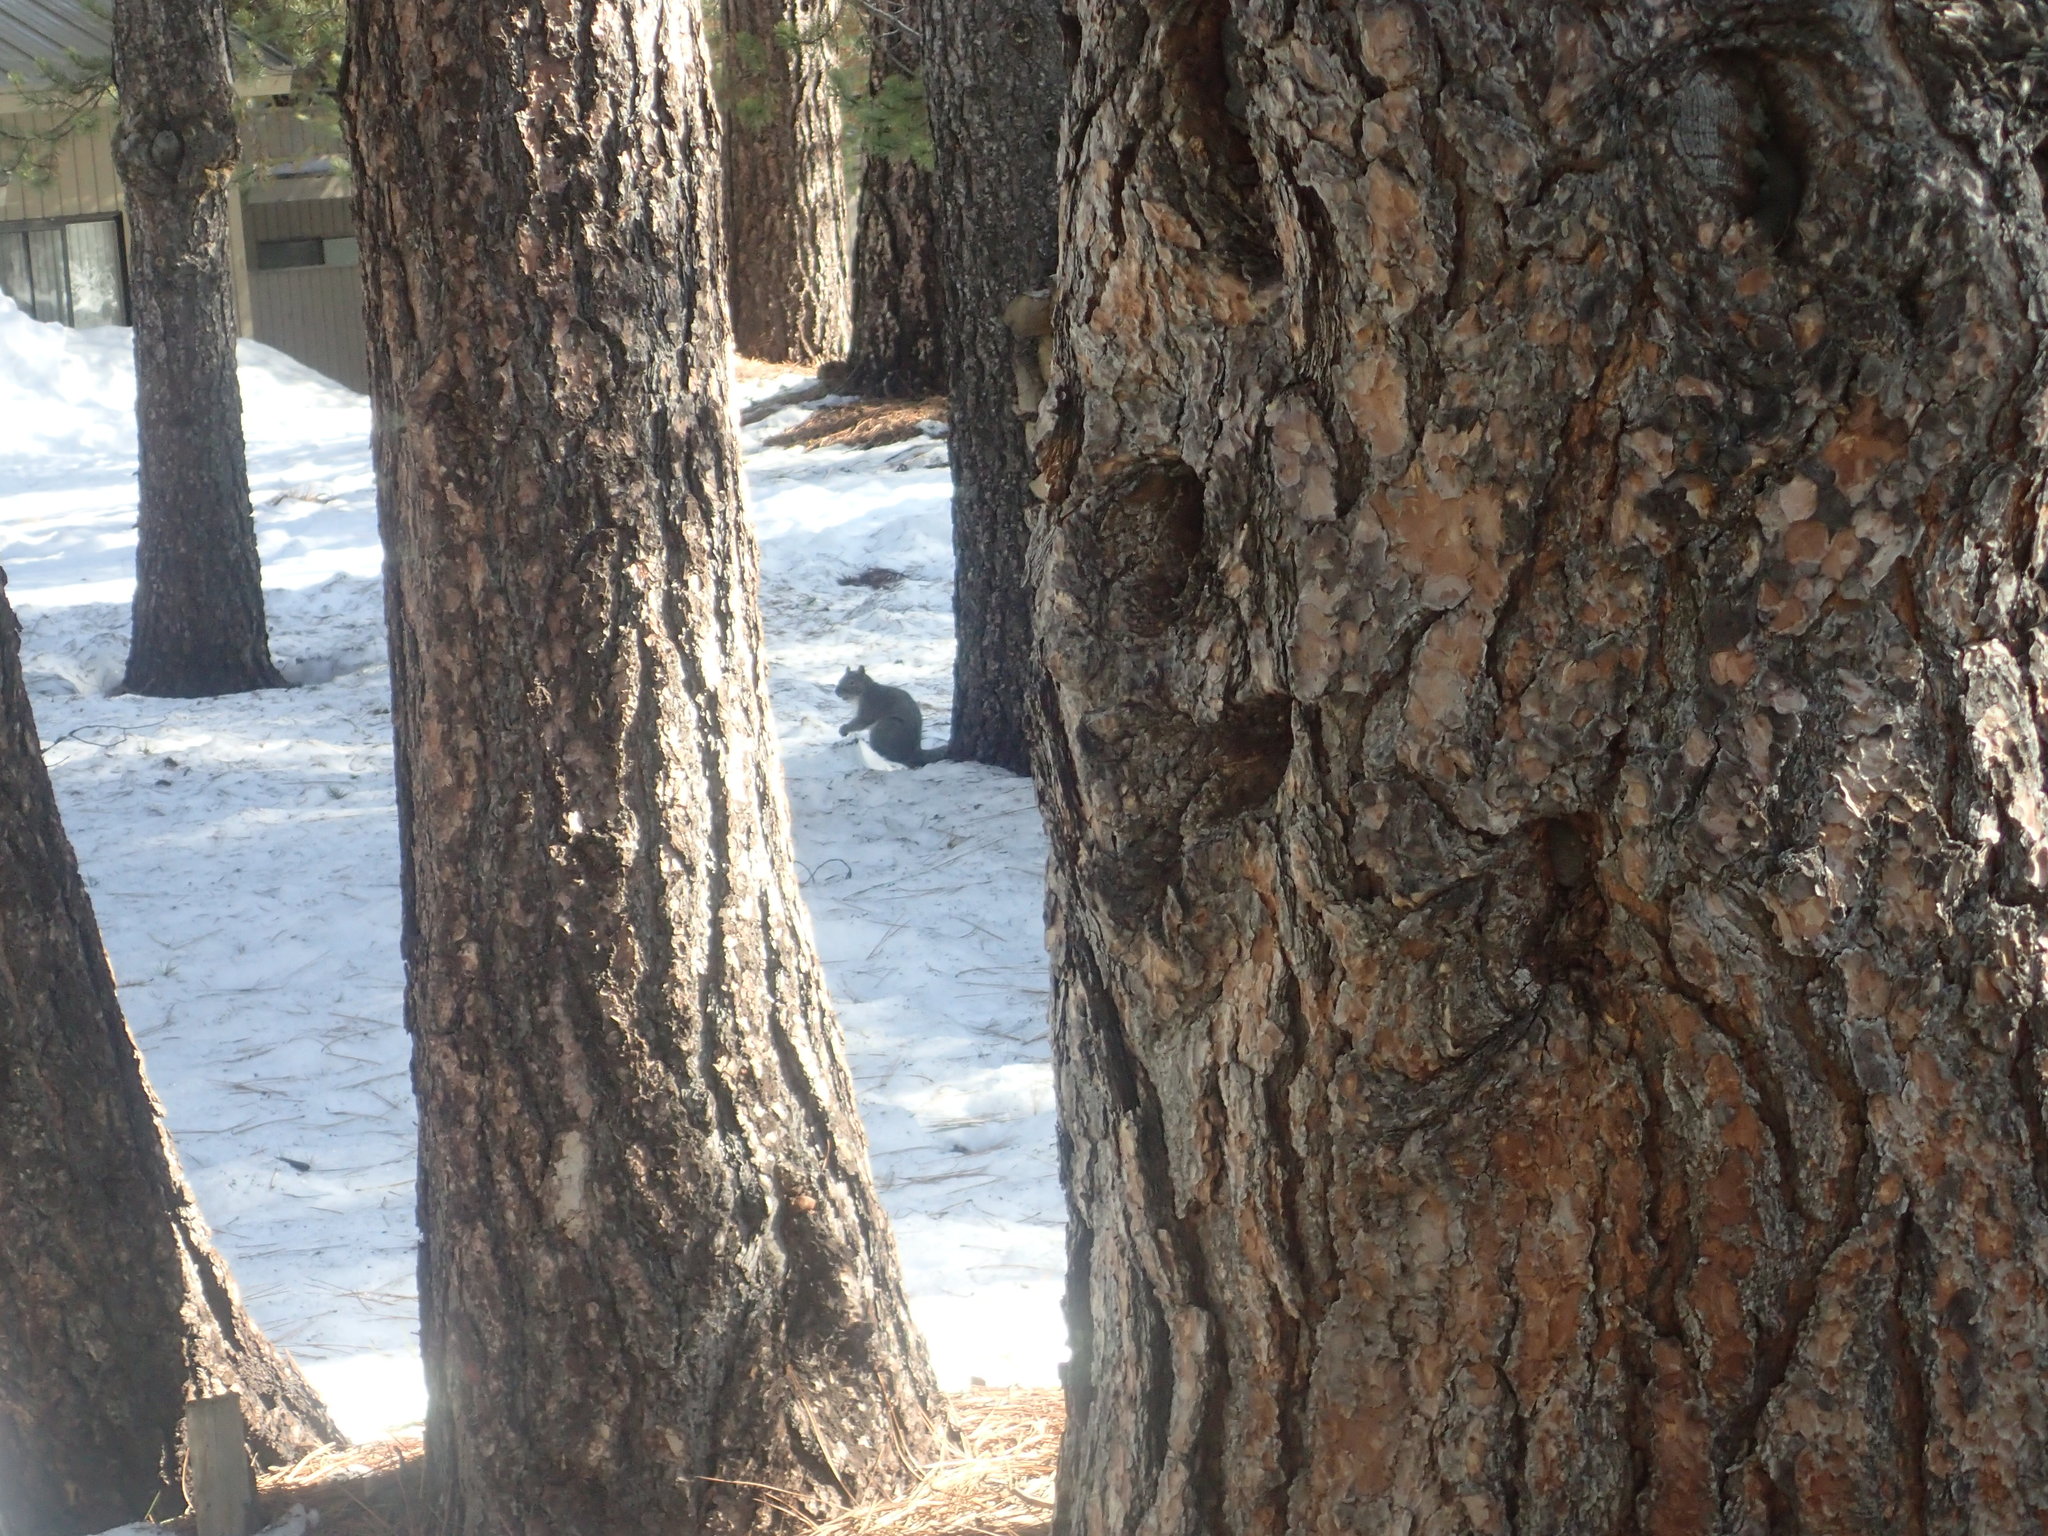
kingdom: Animalia
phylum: Chordata
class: Mammalia
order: Rodentia
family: Sciuridae
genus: Sciurus
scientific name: Sciurus griseus
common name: Western gray squirrel
